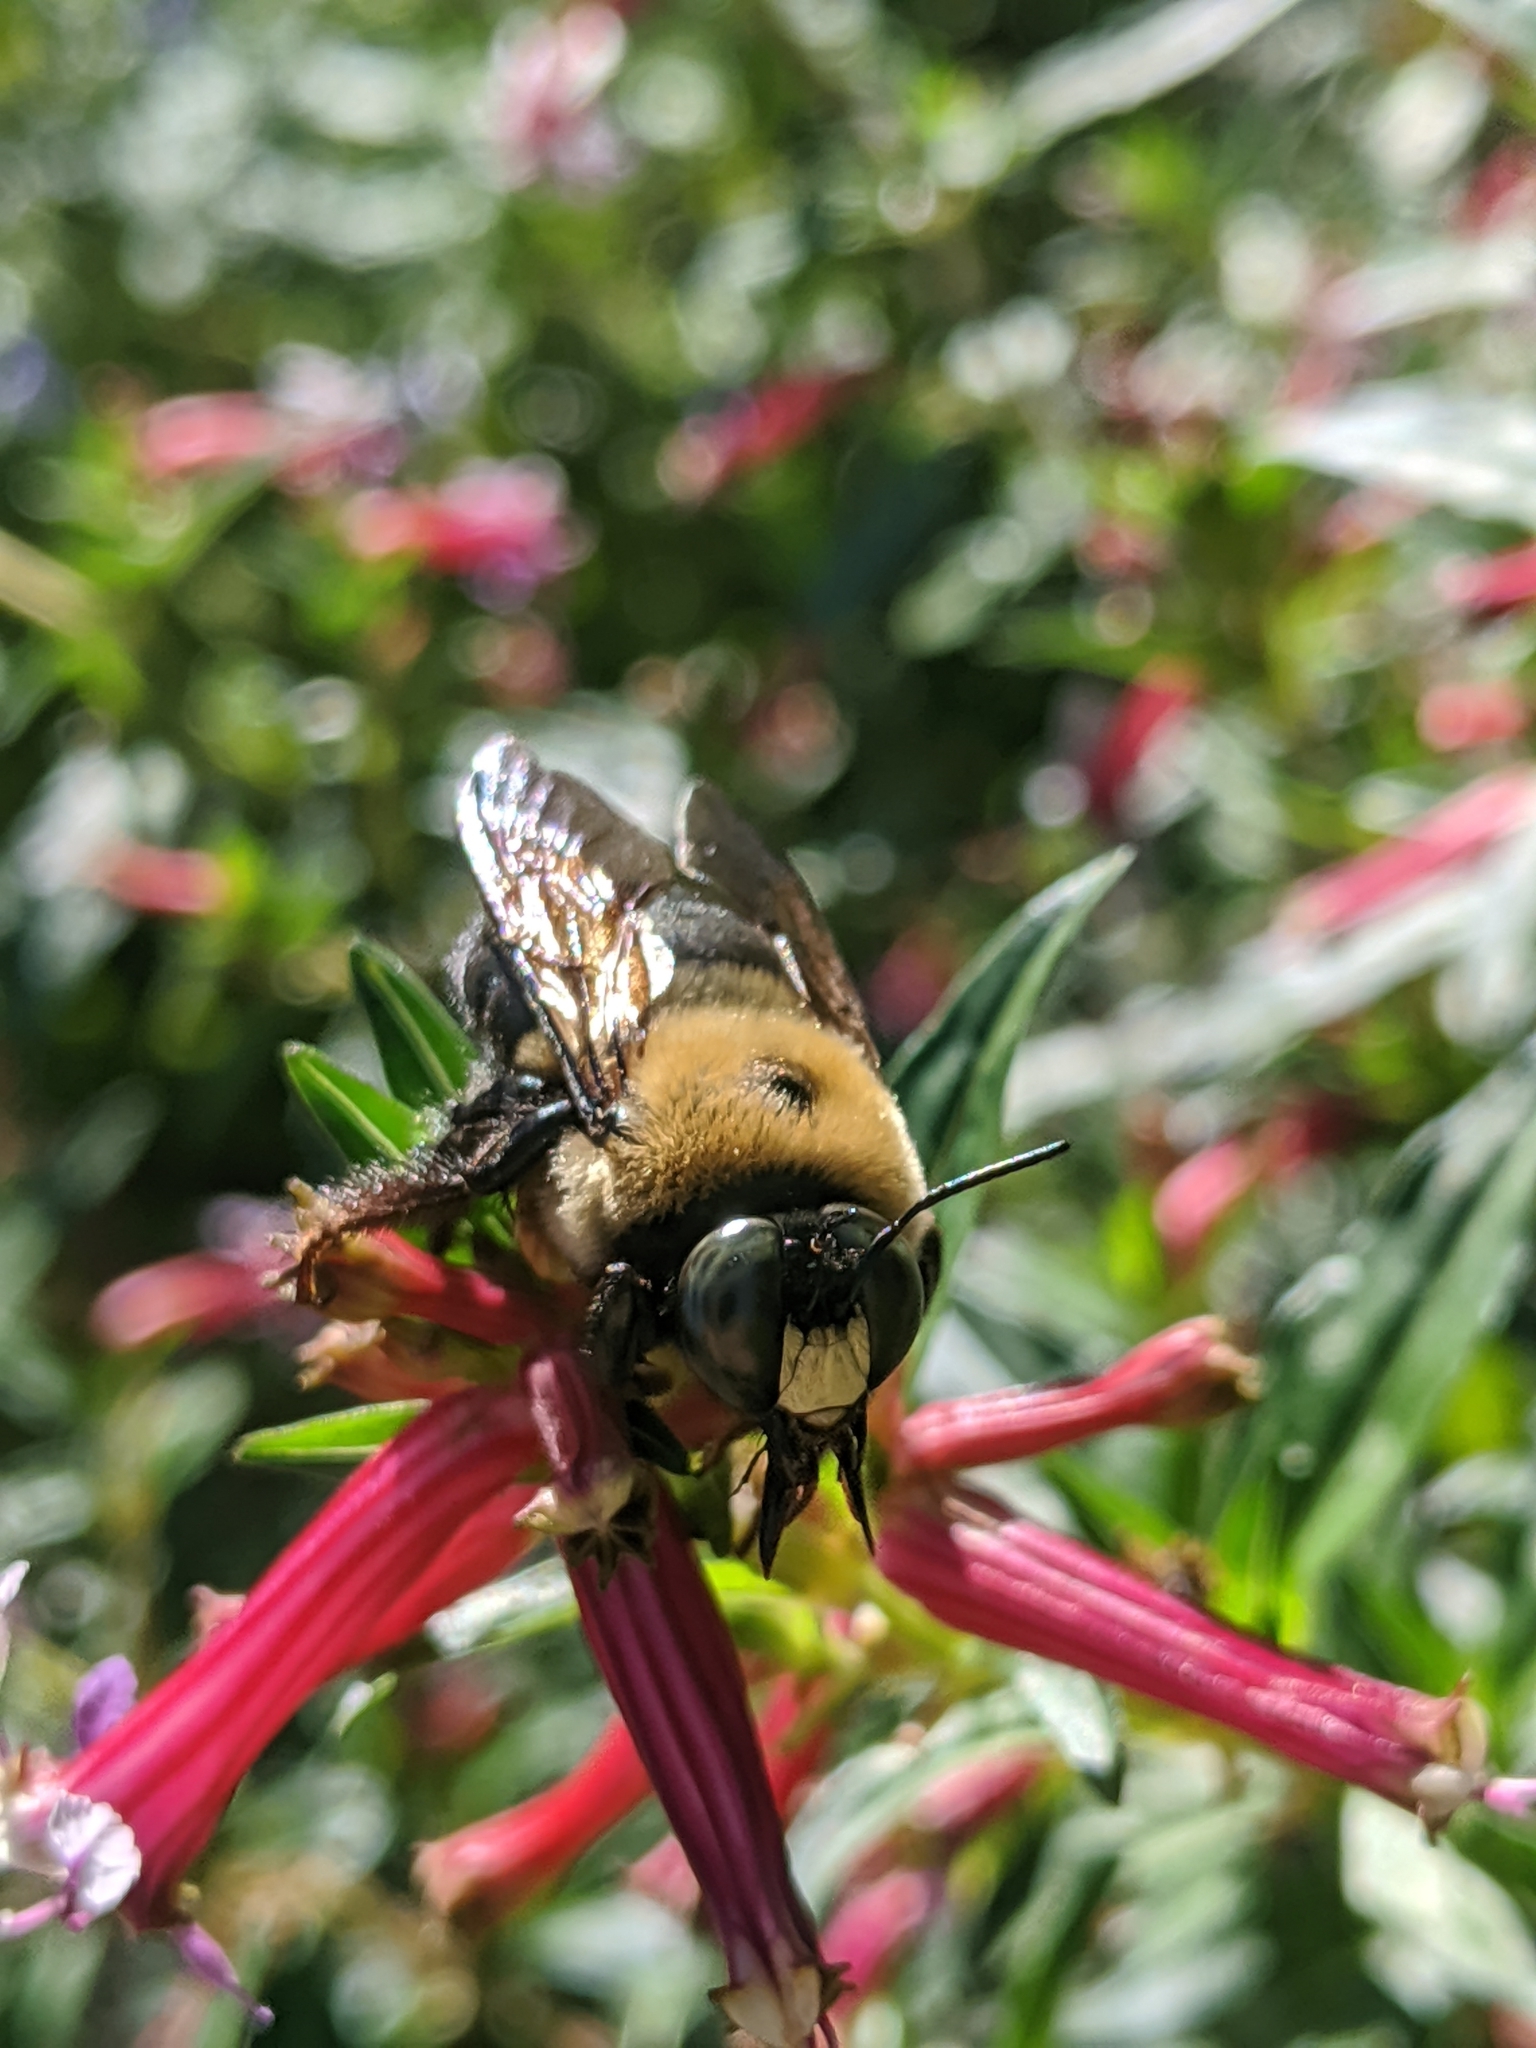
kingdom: Animalia
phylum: Arthropoda
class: Insecta
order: Hymenoptera
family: Apidae
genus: Xylocopa
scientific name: Xylocopa virginica
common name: Carpenter bee
